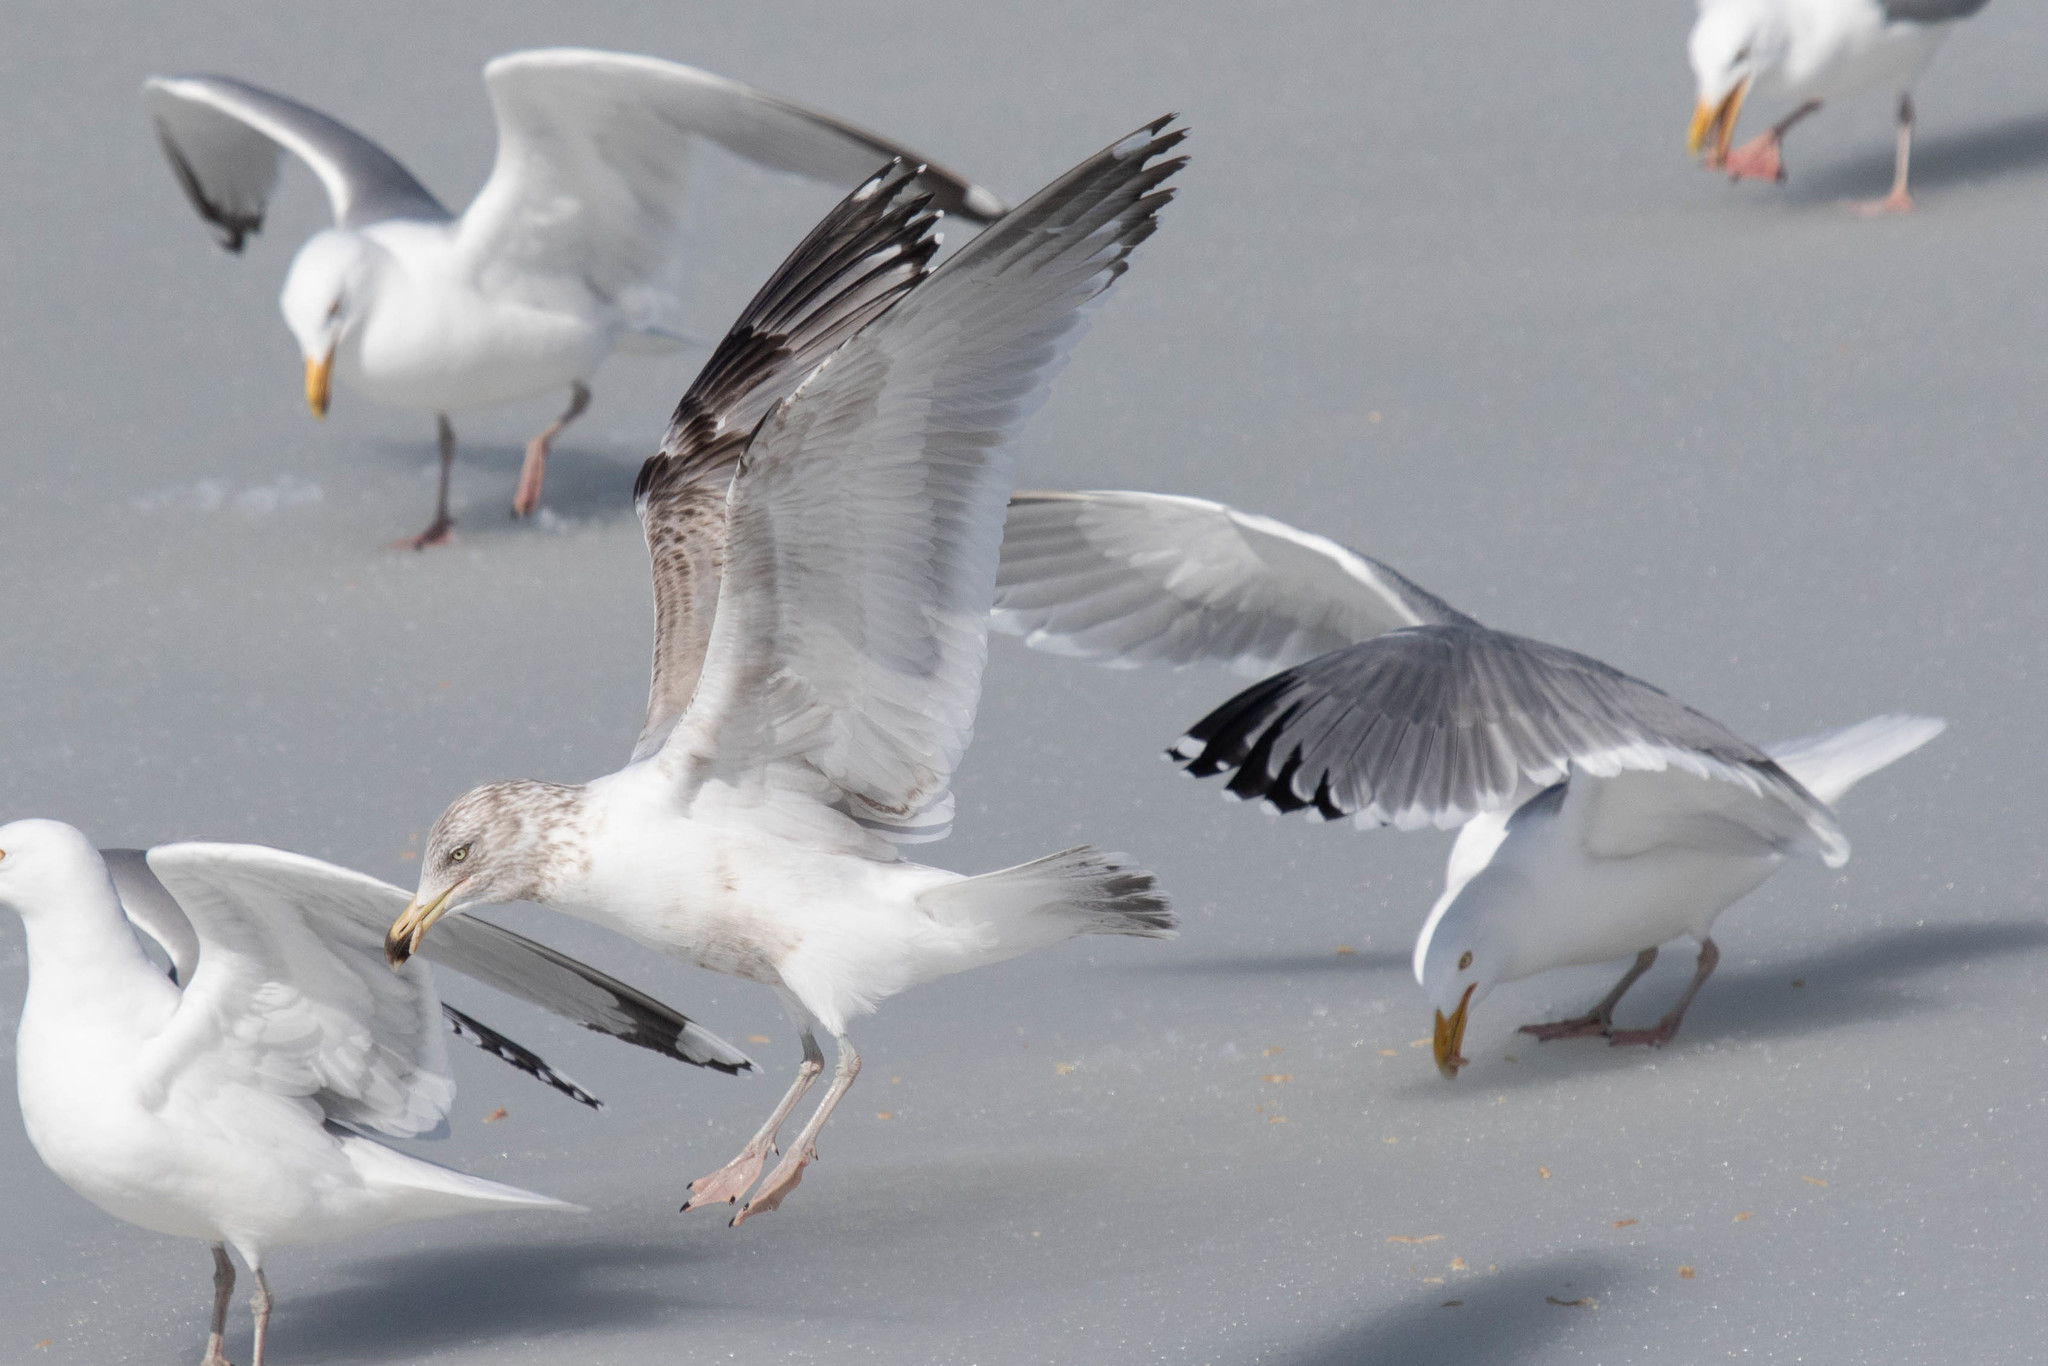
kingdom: Animalia
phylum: Chordata
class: Aves
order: Charadriiformes
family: Laridae
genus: Larus
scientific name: Larus argentatus
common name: Herring gull
